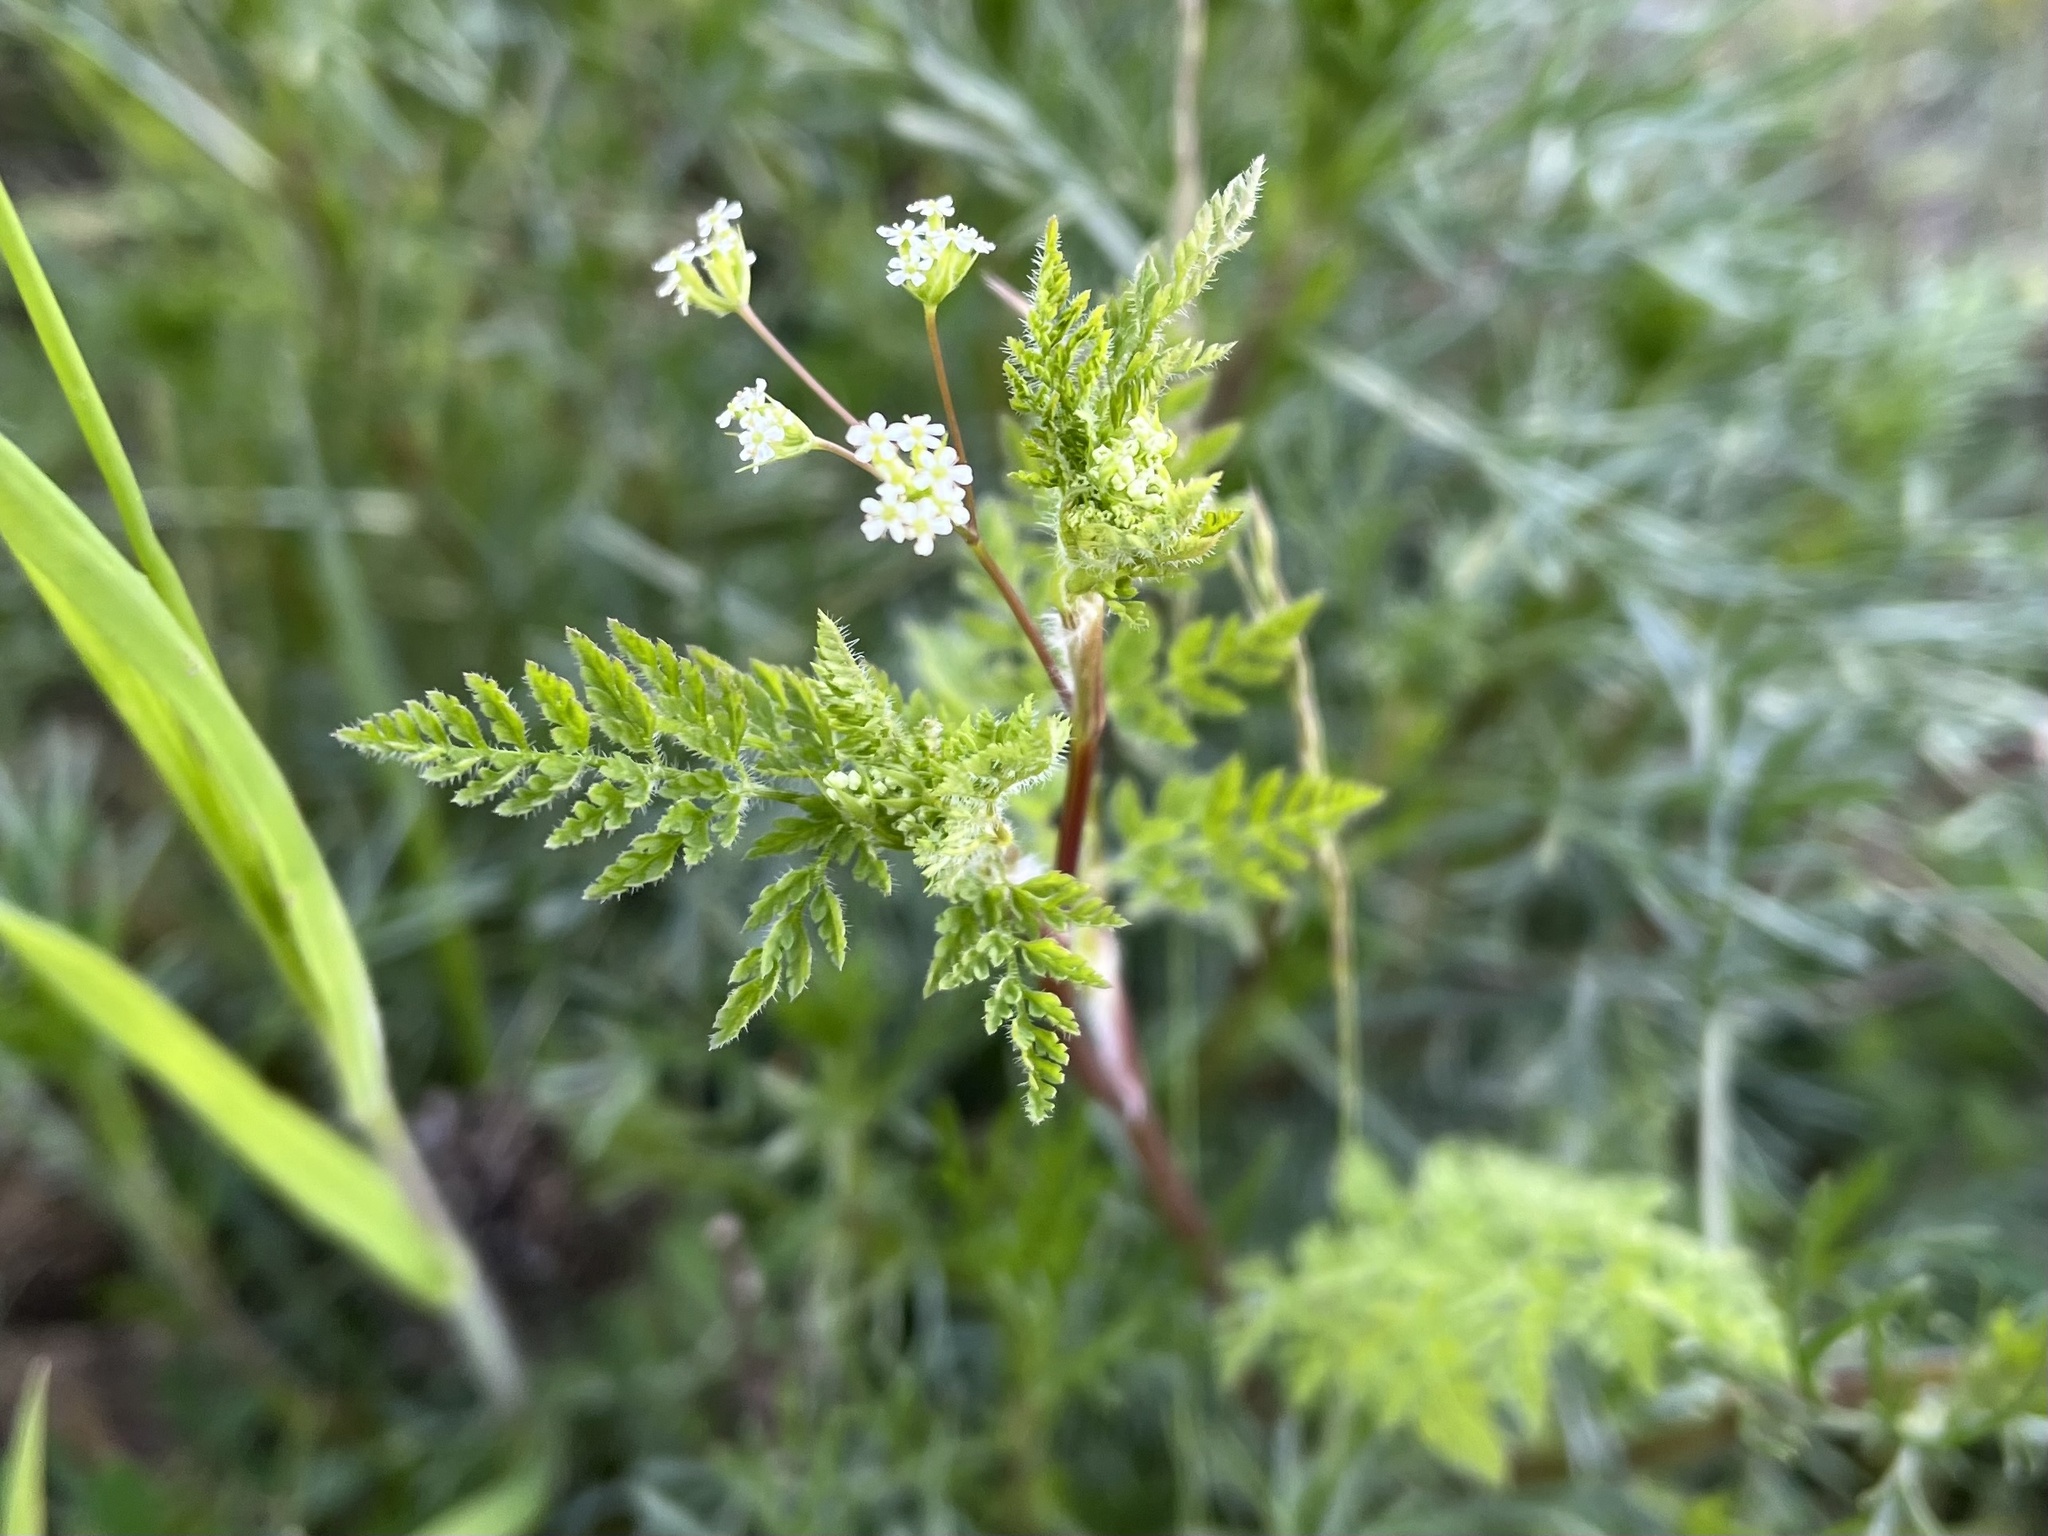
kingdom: Plantae
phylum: Tracheophyta
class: Magnoliopsida
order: Apiales
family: Apiaceae
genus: Anthriscus
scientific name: Anthriscus caucalis
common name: Bur chervil
